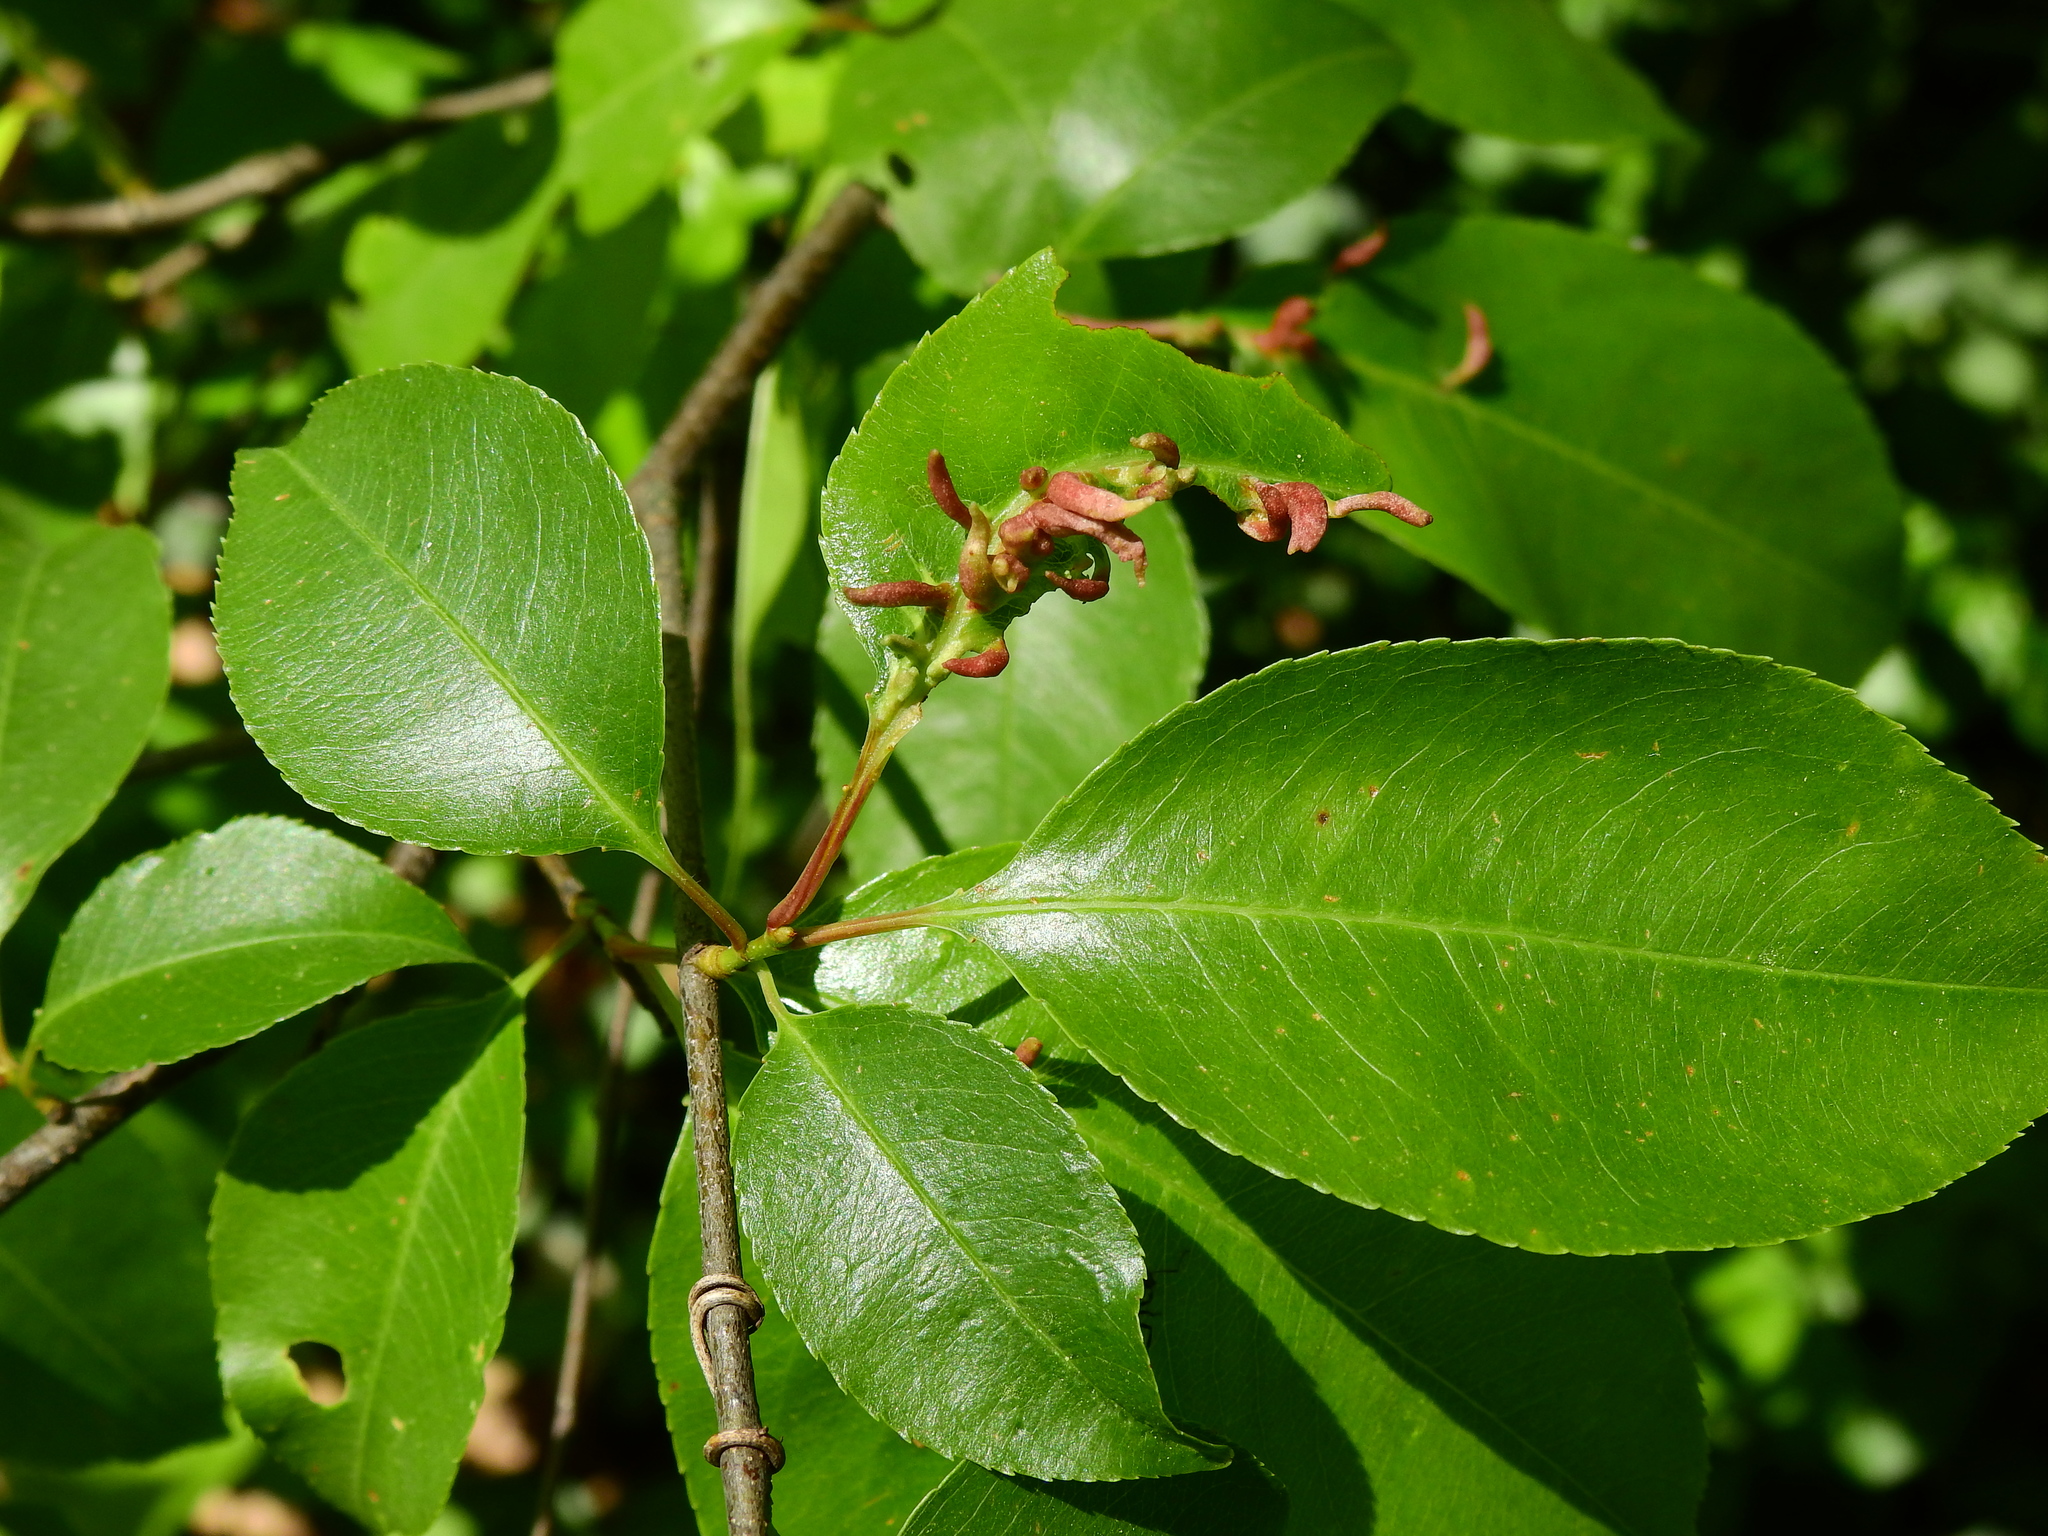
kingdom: Animalia
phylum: Arthropoda
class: Arachnida
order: Trombidiformes
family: Eriophyidae
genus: Eriophyes
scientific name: Eriophyes
